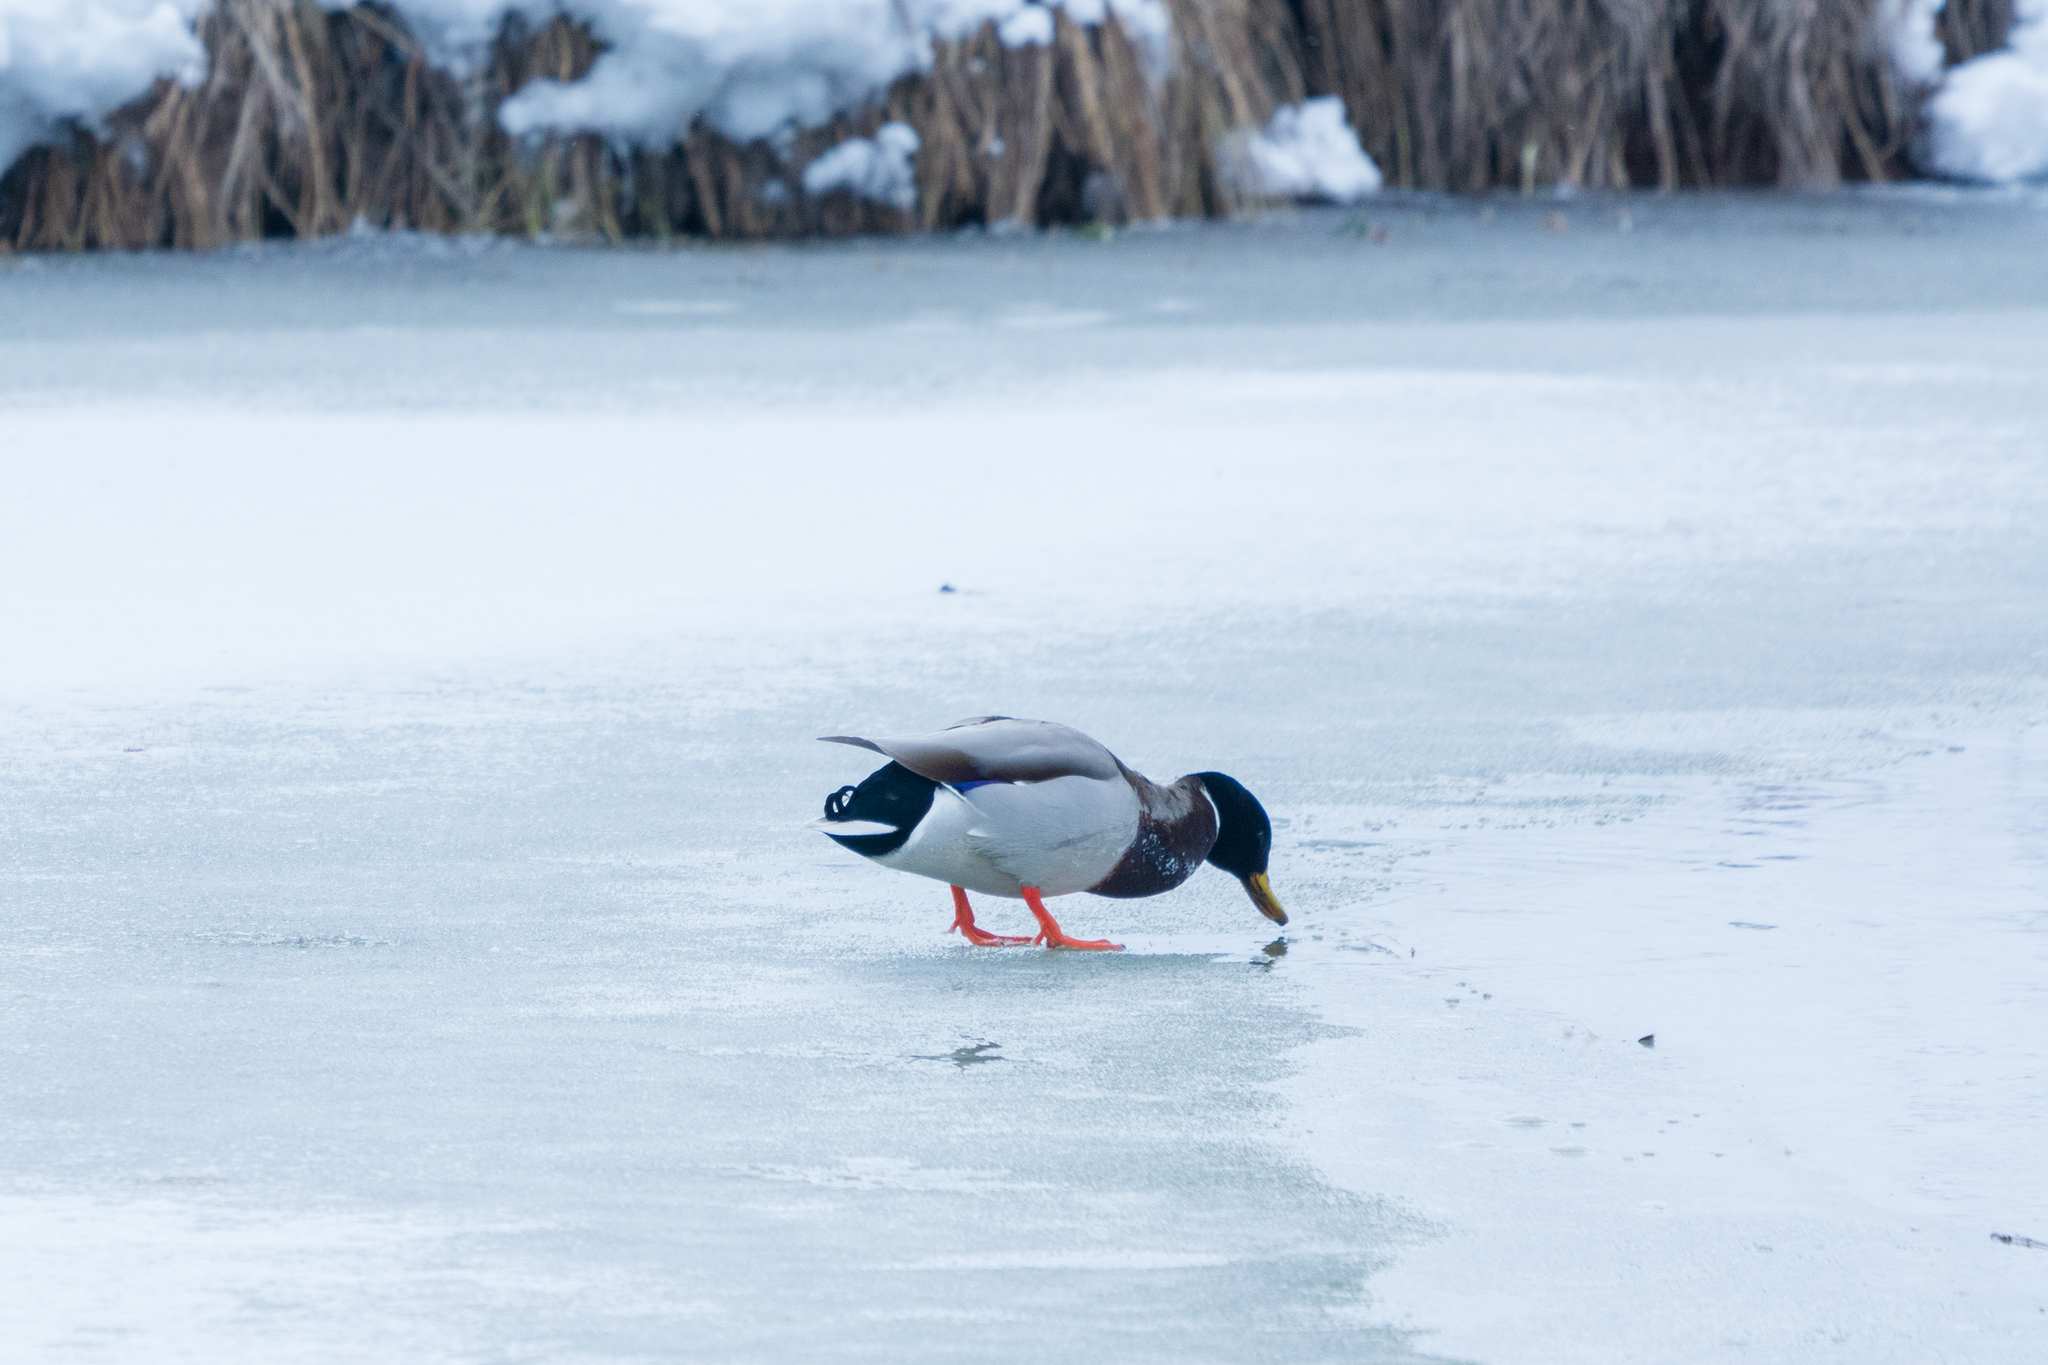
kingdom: Animalia
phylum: Chordata
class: Aves
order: Anseriformes
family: Anatidae
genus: Anas
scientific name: Anas platyrhynchos
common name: Mallard
